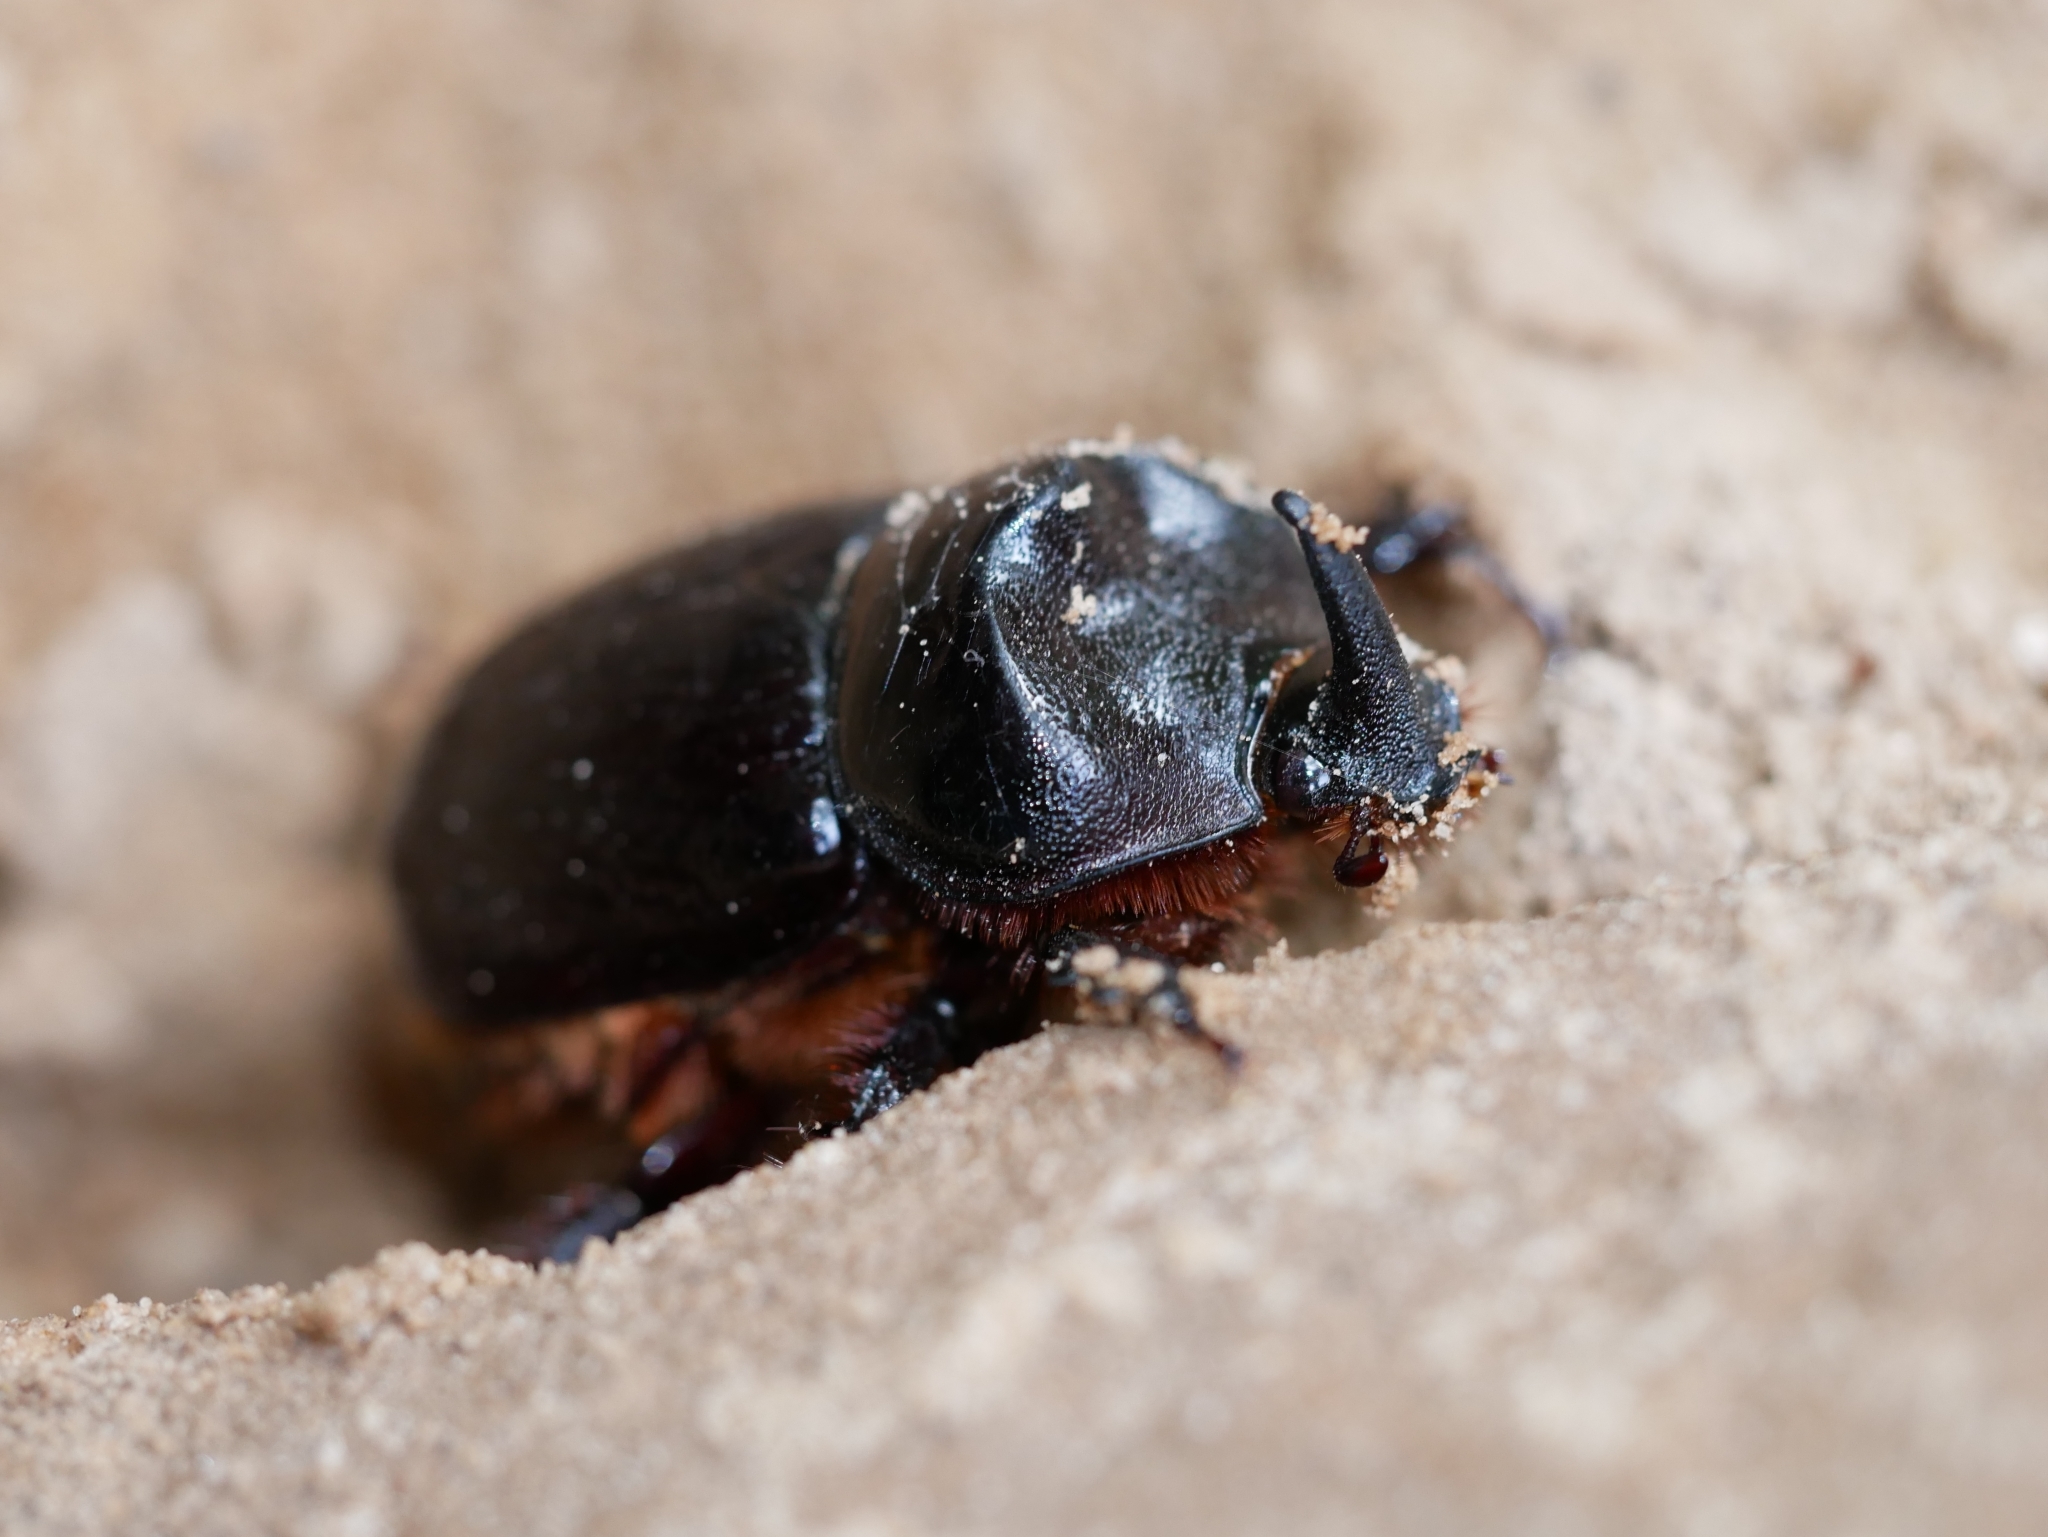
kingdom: Animalia
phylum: Arthropoda
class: Insecta
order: Coleoptera
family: Scarabaeidae
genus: Xyloryctes
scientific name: Xyloryctes thestalus
